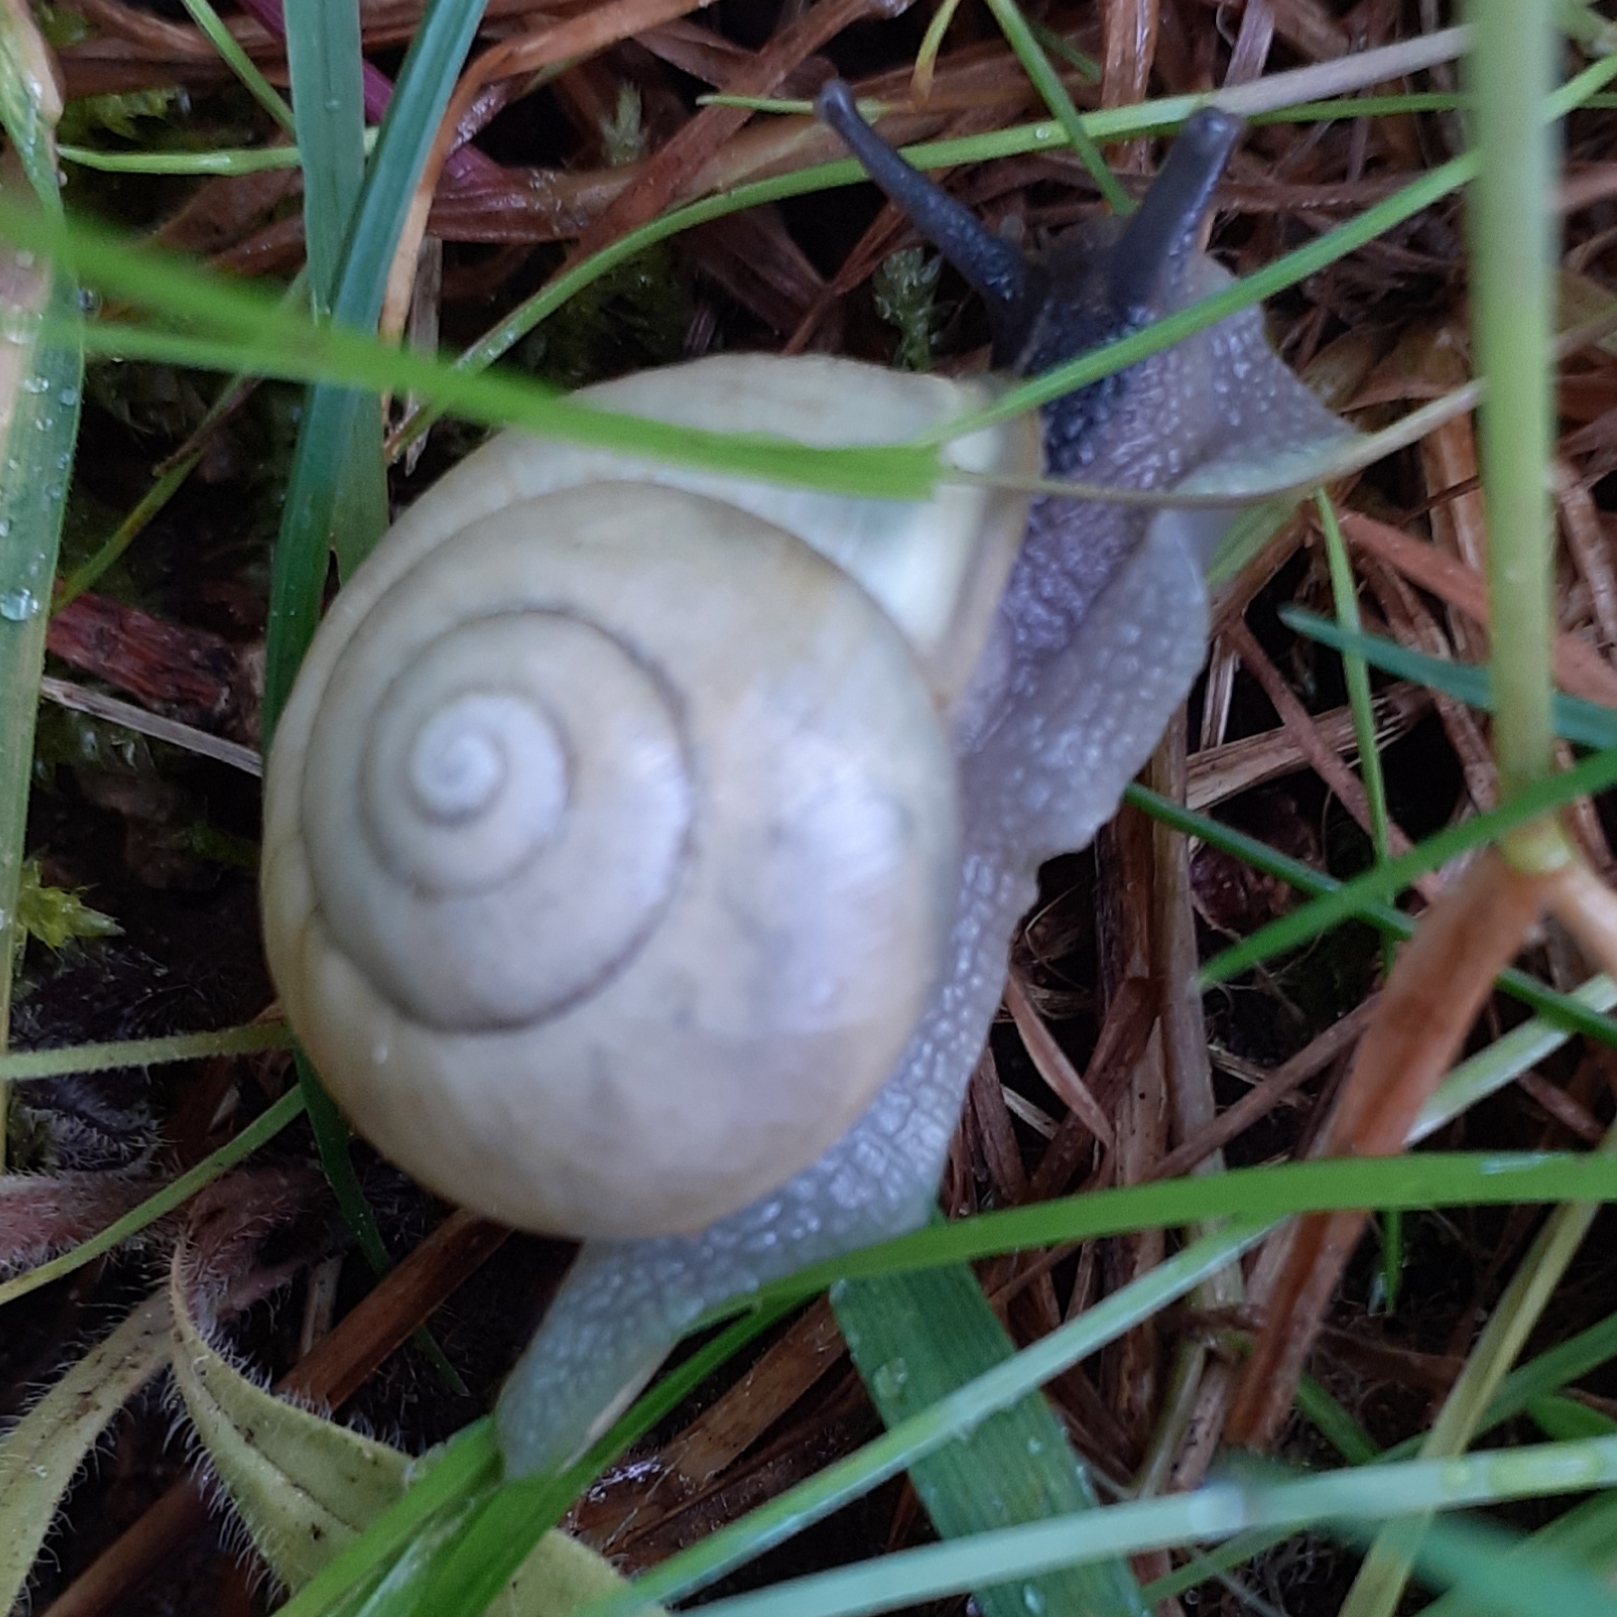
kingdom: Animalia
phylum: Mollusca
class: Gastropoda
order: Stylommatophora
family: Helicidae
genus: Cepaea
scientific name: Cepaea hortensis
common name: White-lip gardensnail
